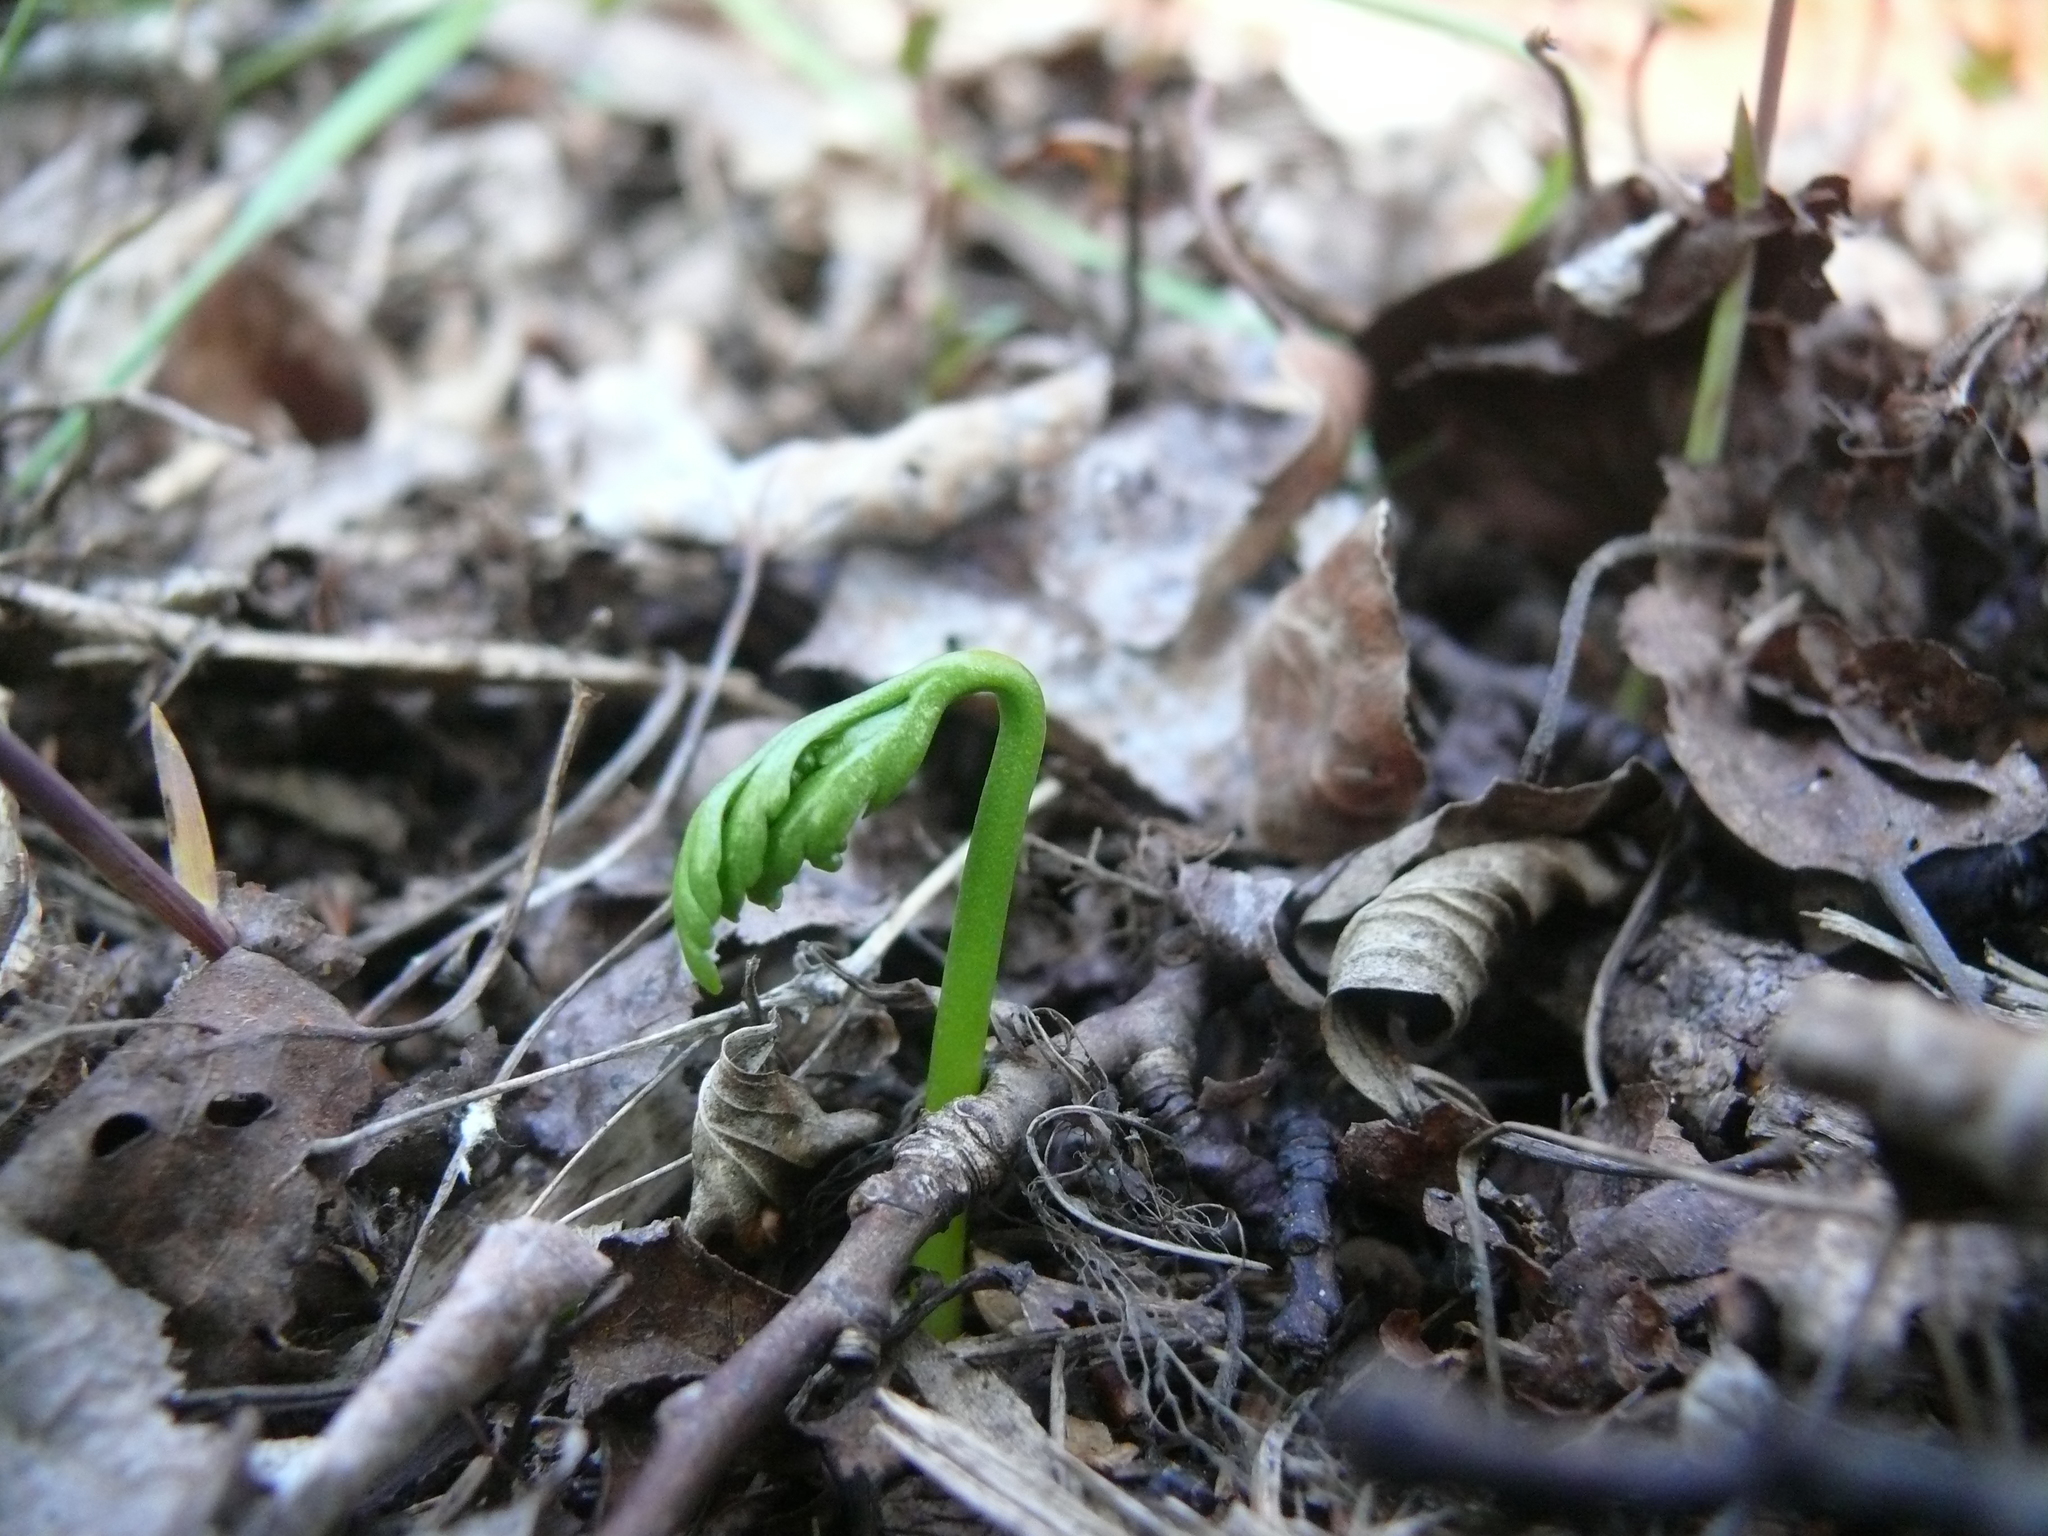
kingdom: Plantae
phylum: Tracheophyta
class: Polypodiopsida
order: Ophioglossales
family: Ophioglossaceae
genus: Botrychium
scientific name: Botrychium lanceolatum
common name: Lance-leaved moonwort
